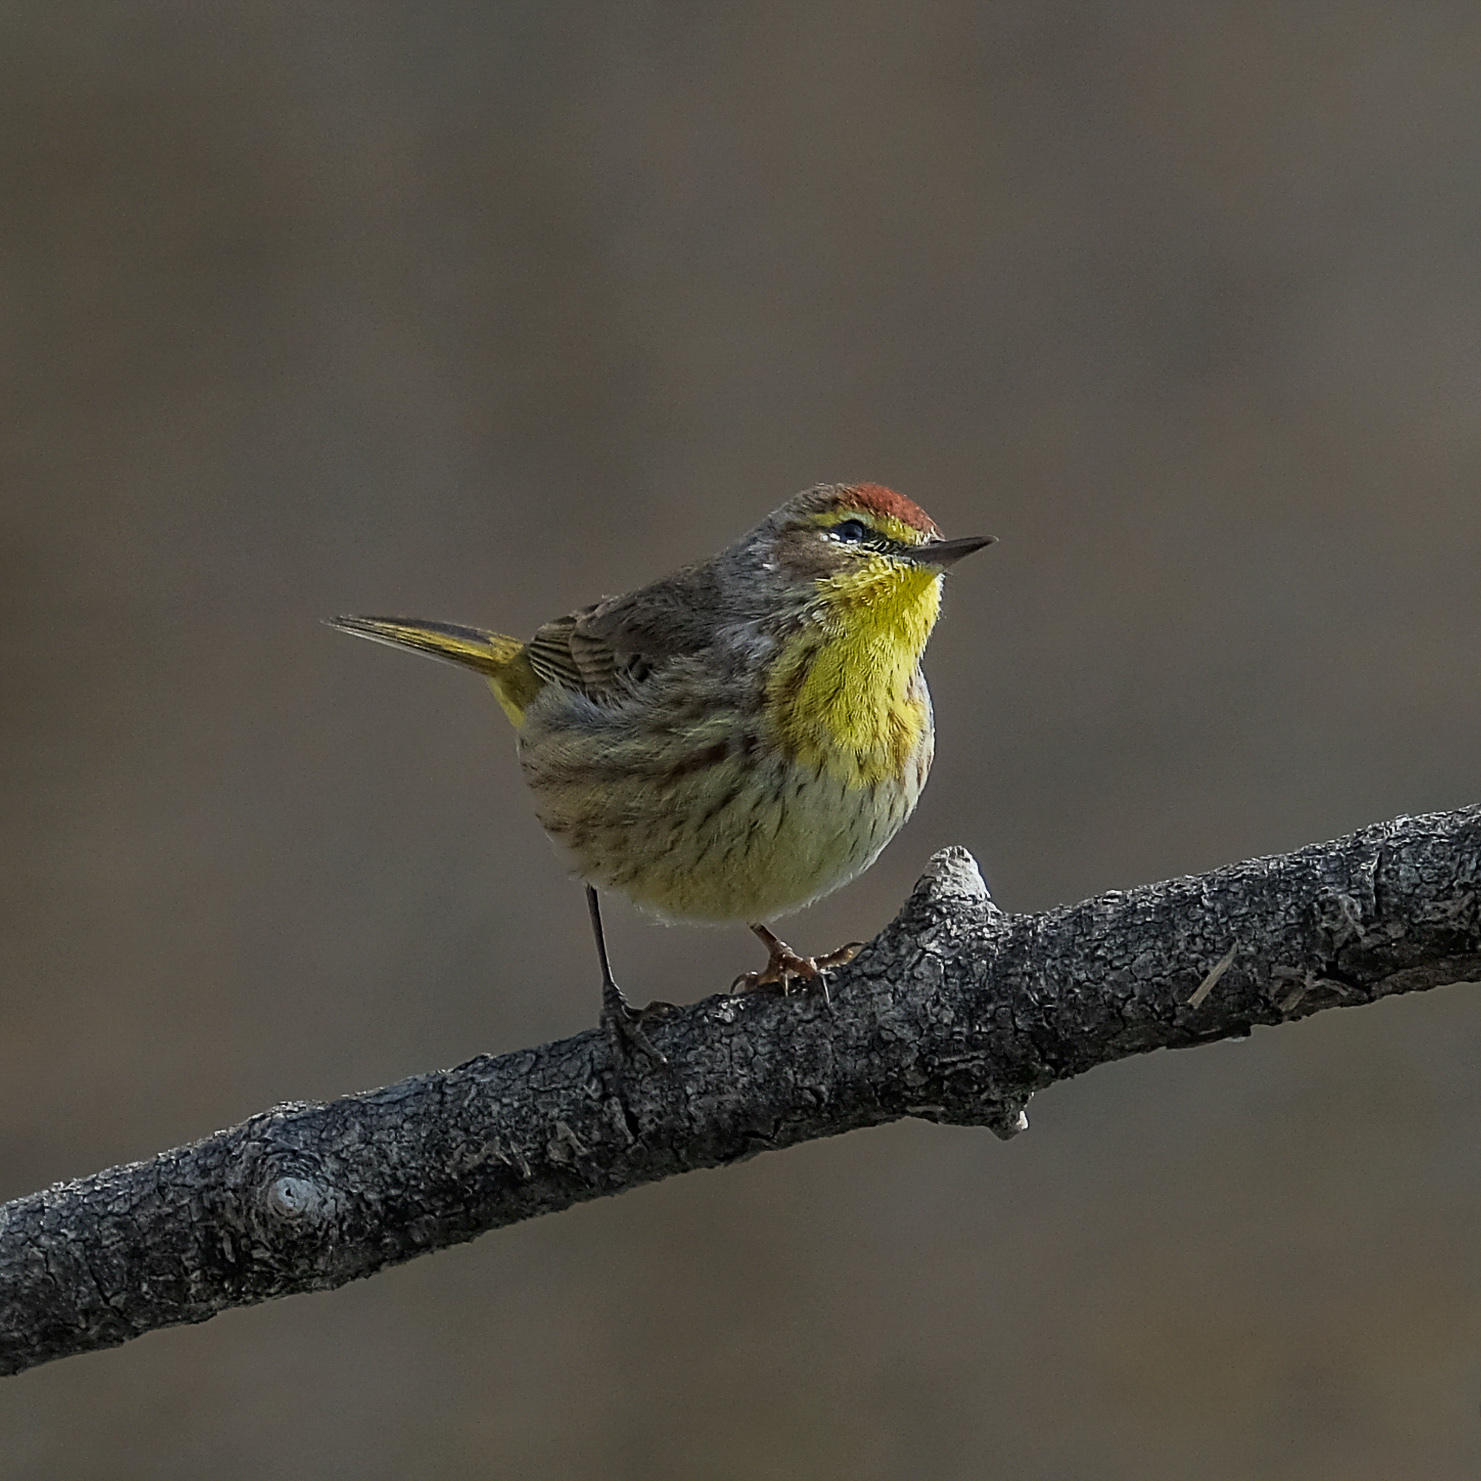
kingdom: Animalia
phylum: Chordata
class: Aves
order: Passeriformes
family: Parulidae
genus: Setophaga
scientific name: Setophaga palmarum
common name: Palm warbler
